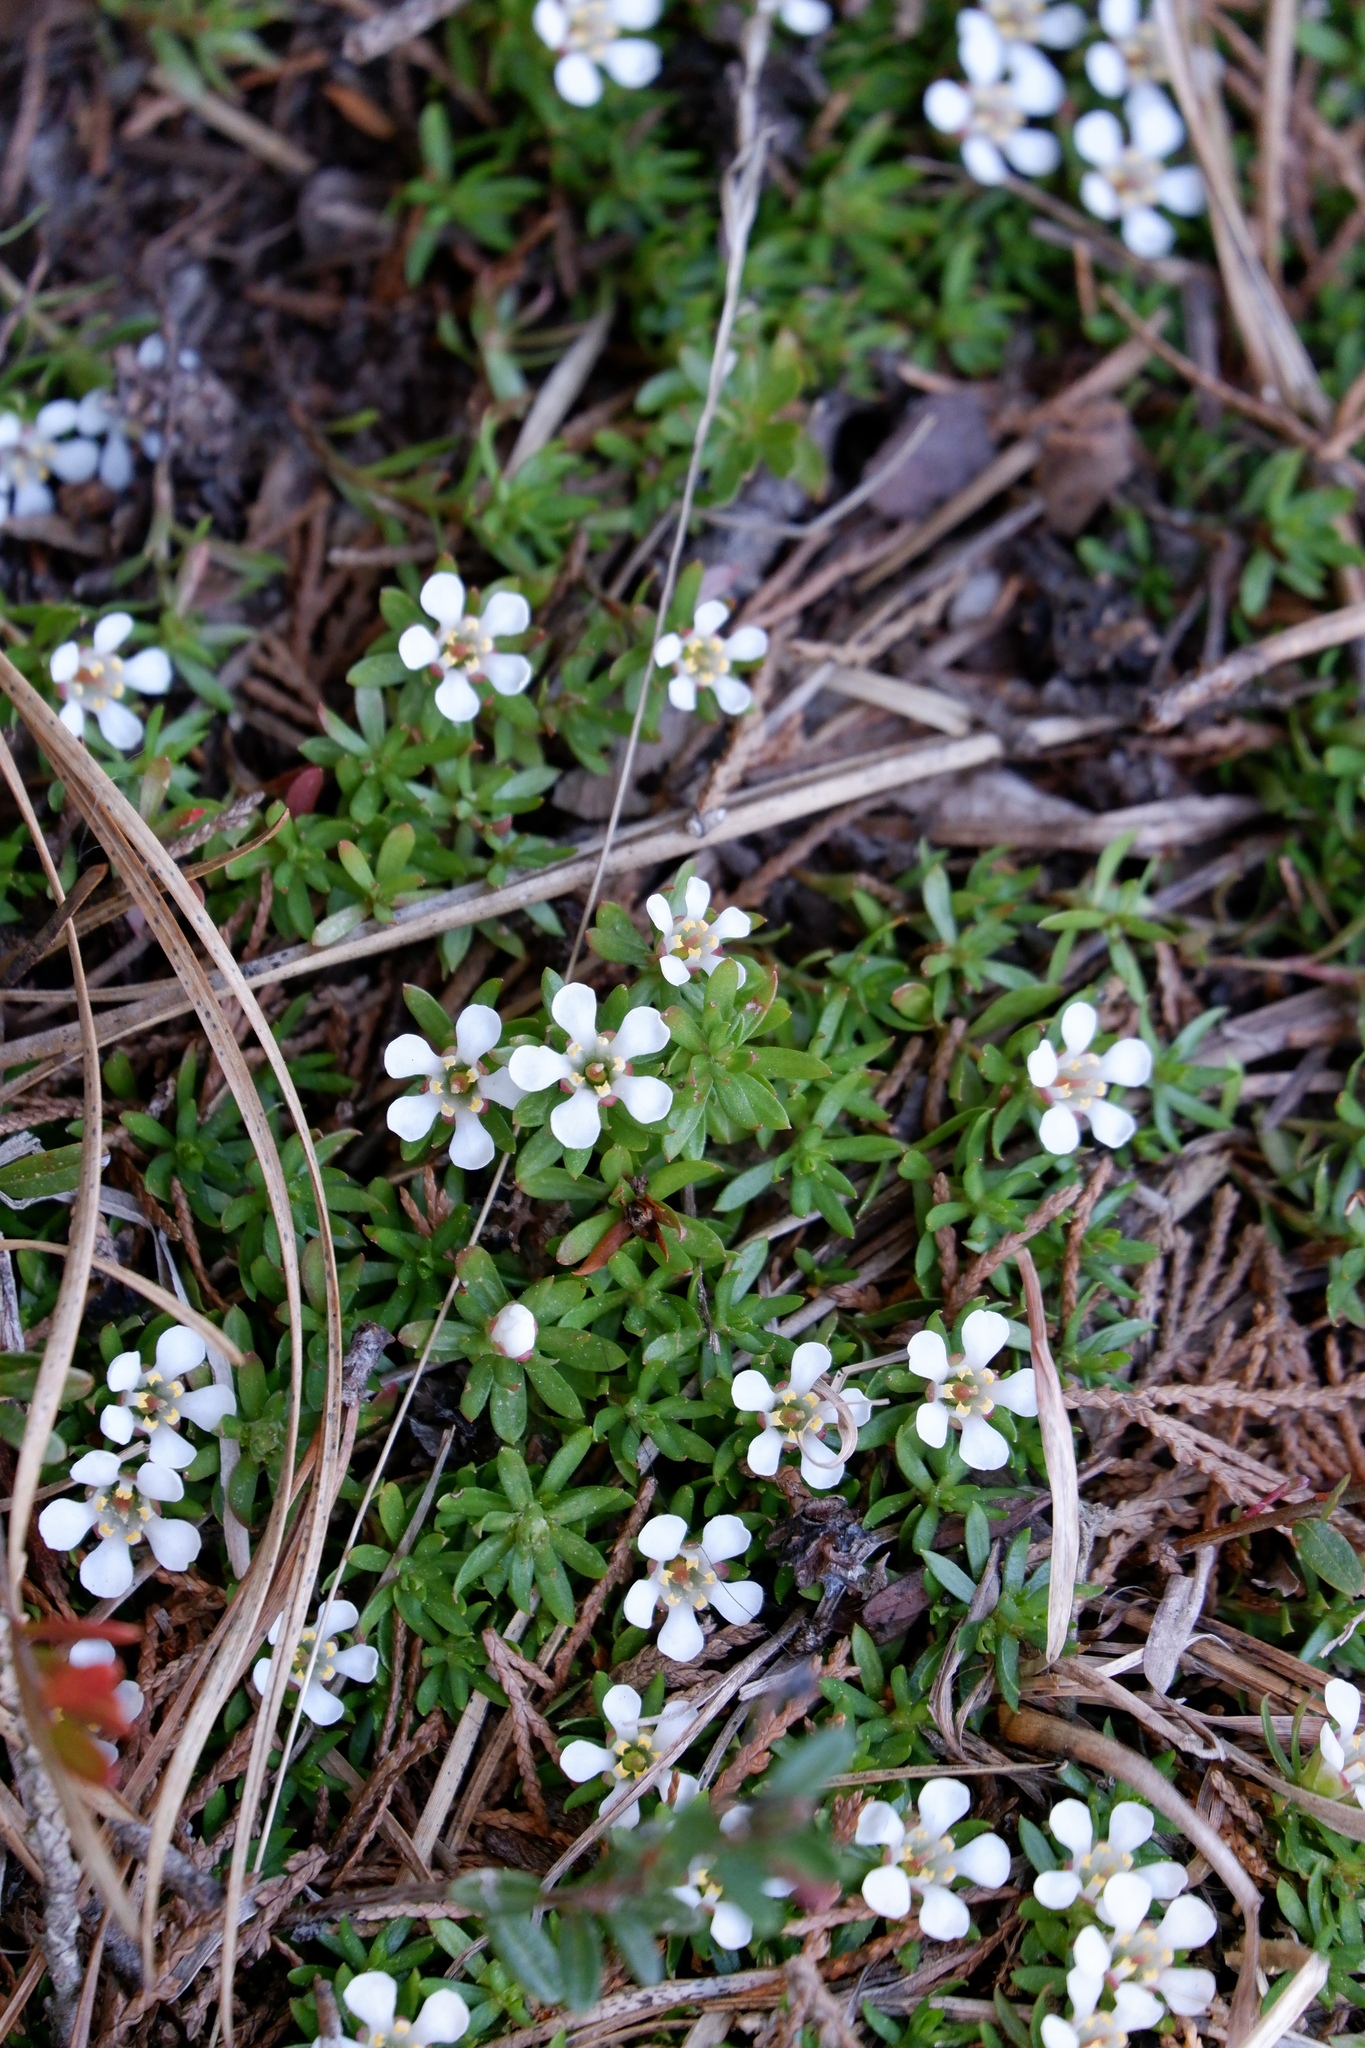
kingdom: Plantae
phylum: Tracheophyta
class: Magnoliopsida
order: Ericales
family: Diapensiaceae
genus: Pyxidanthera
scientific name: Pyxidanthera barbulata
